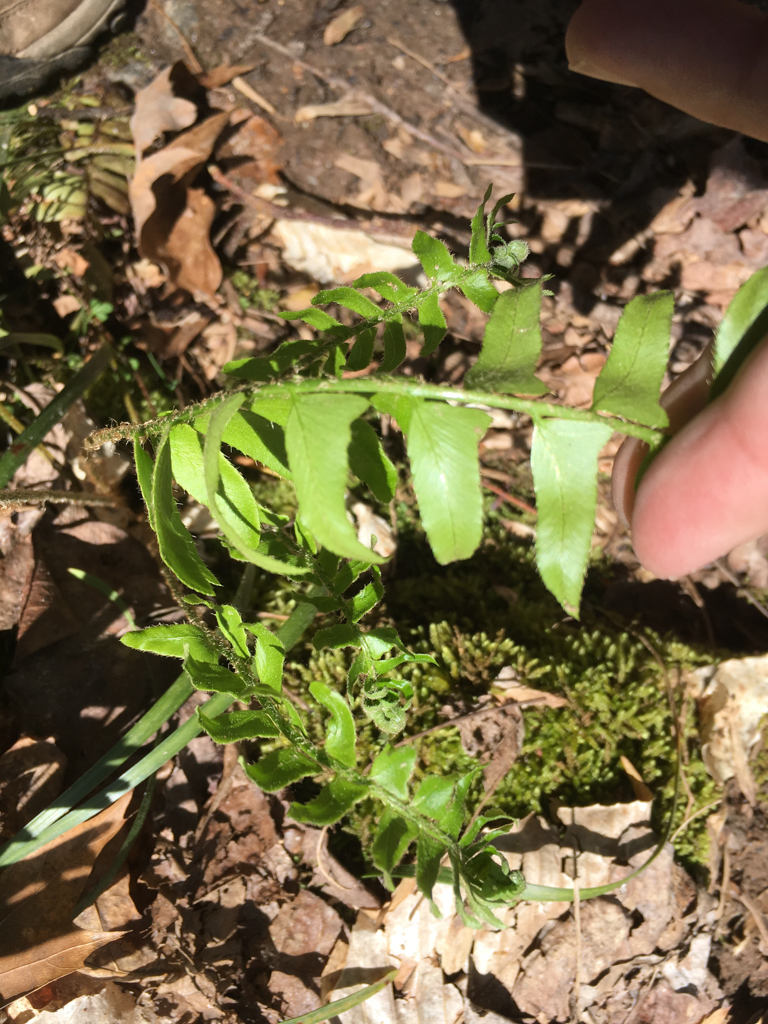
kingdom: Plantae
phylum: Tracheophyta
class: Polypodiopsida
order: Polypodiales
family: Dryopteridaceae
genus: Polystichum
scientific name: Polystichum acrostichoides
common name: Christmas fern
